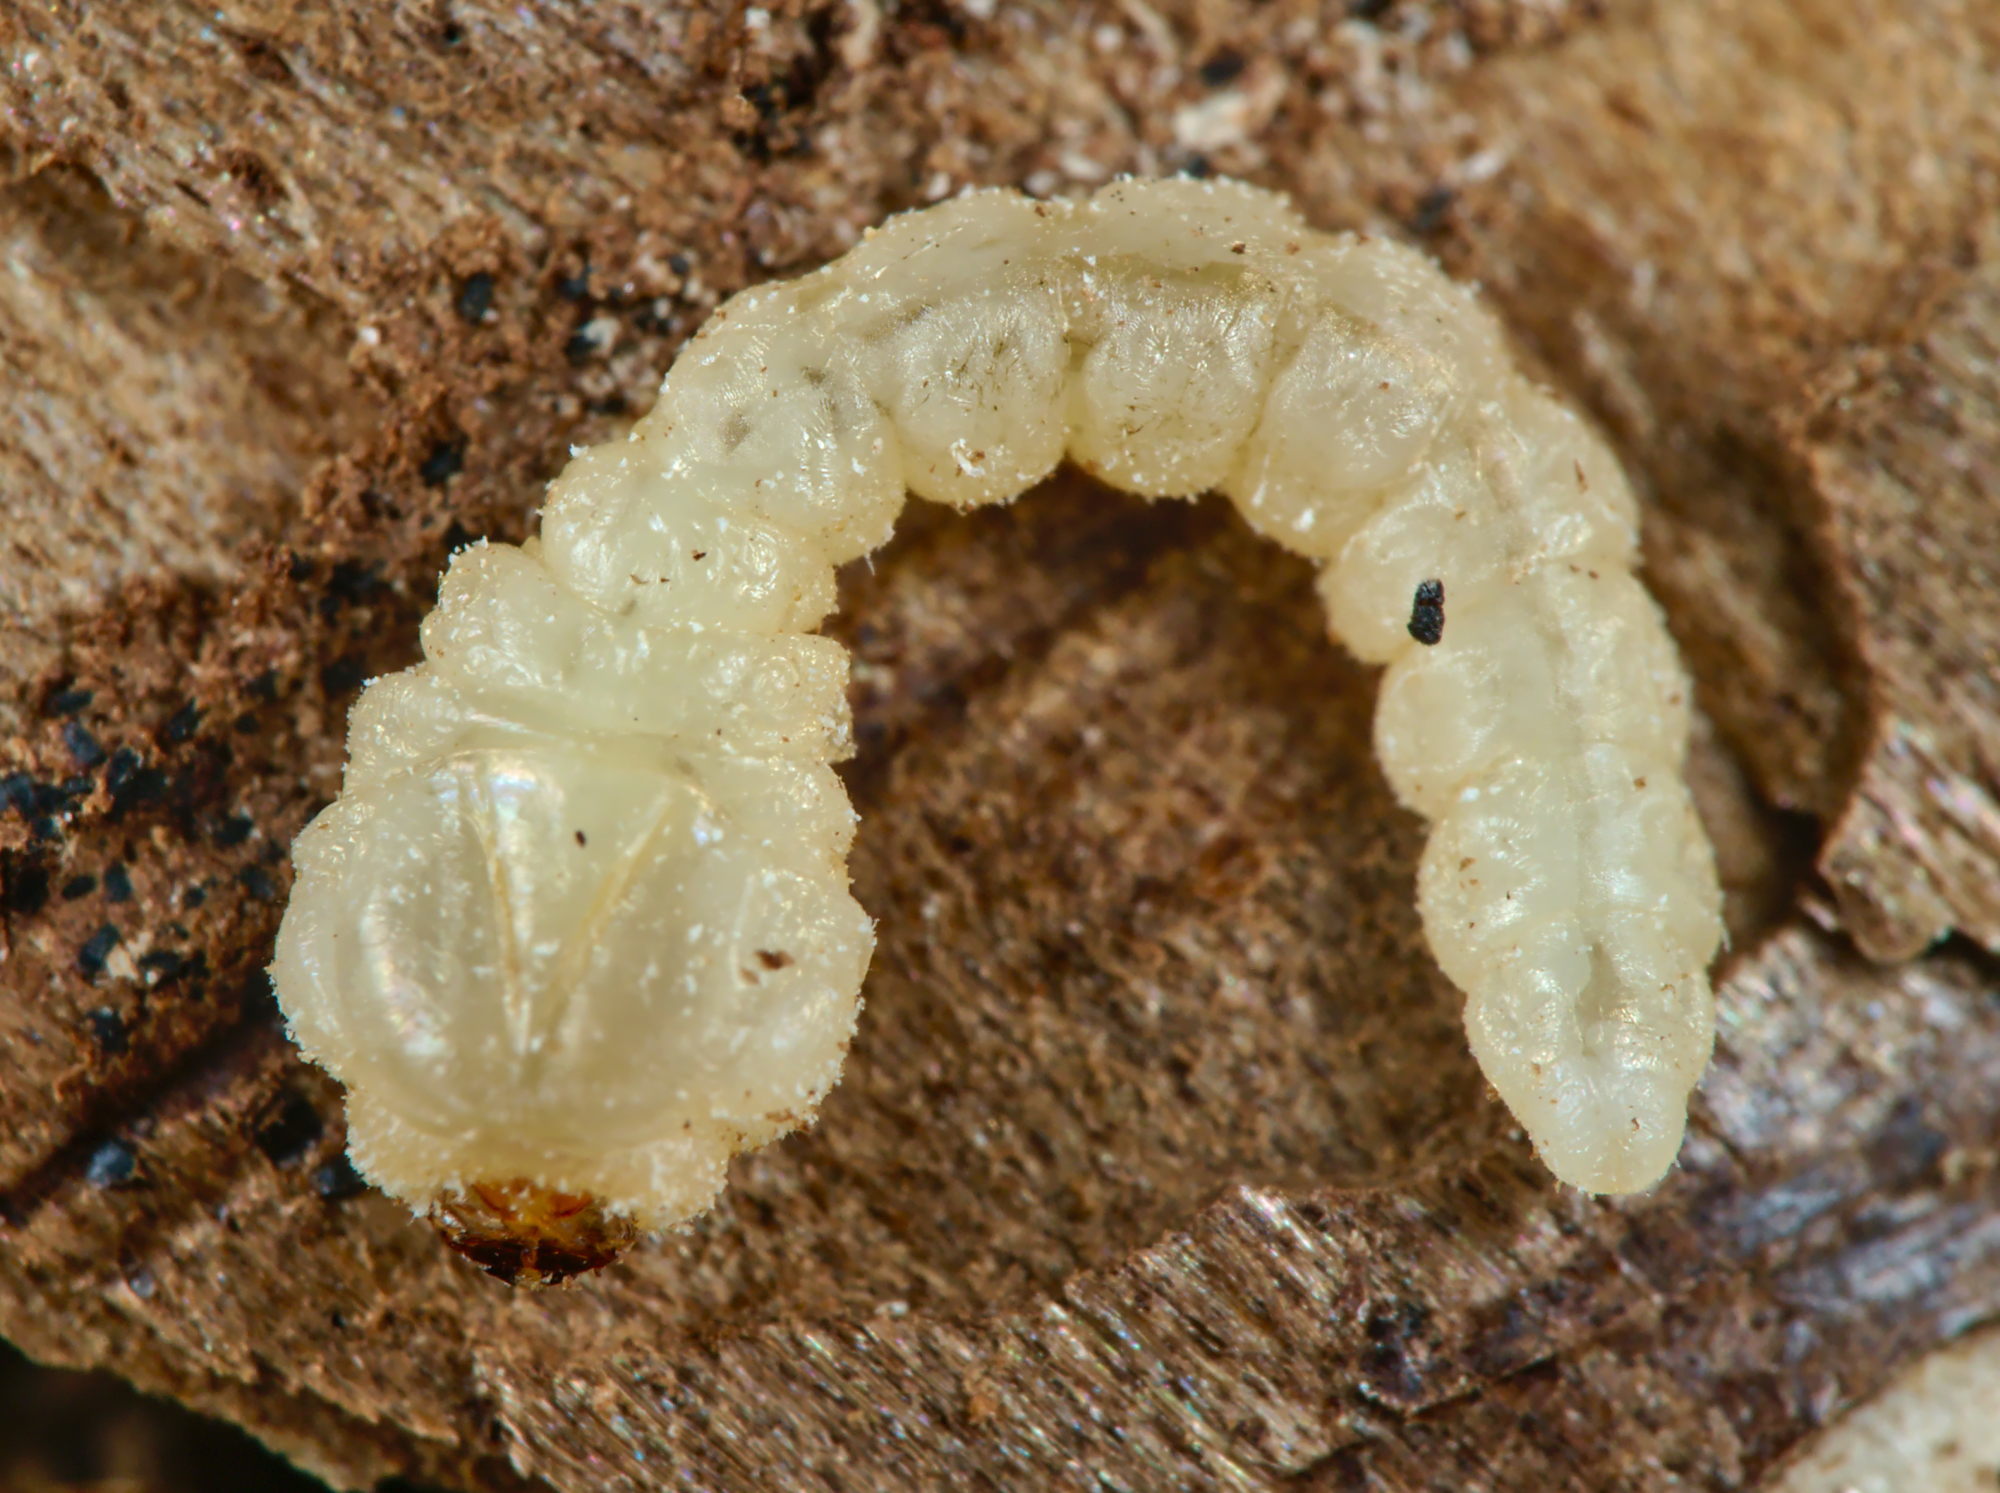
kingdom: Animalia
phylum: Arthropoda
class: Insecta
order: Coleoptera
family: Buprestidae
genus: Anthaxia
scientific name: Anthaxia quadripunctata
